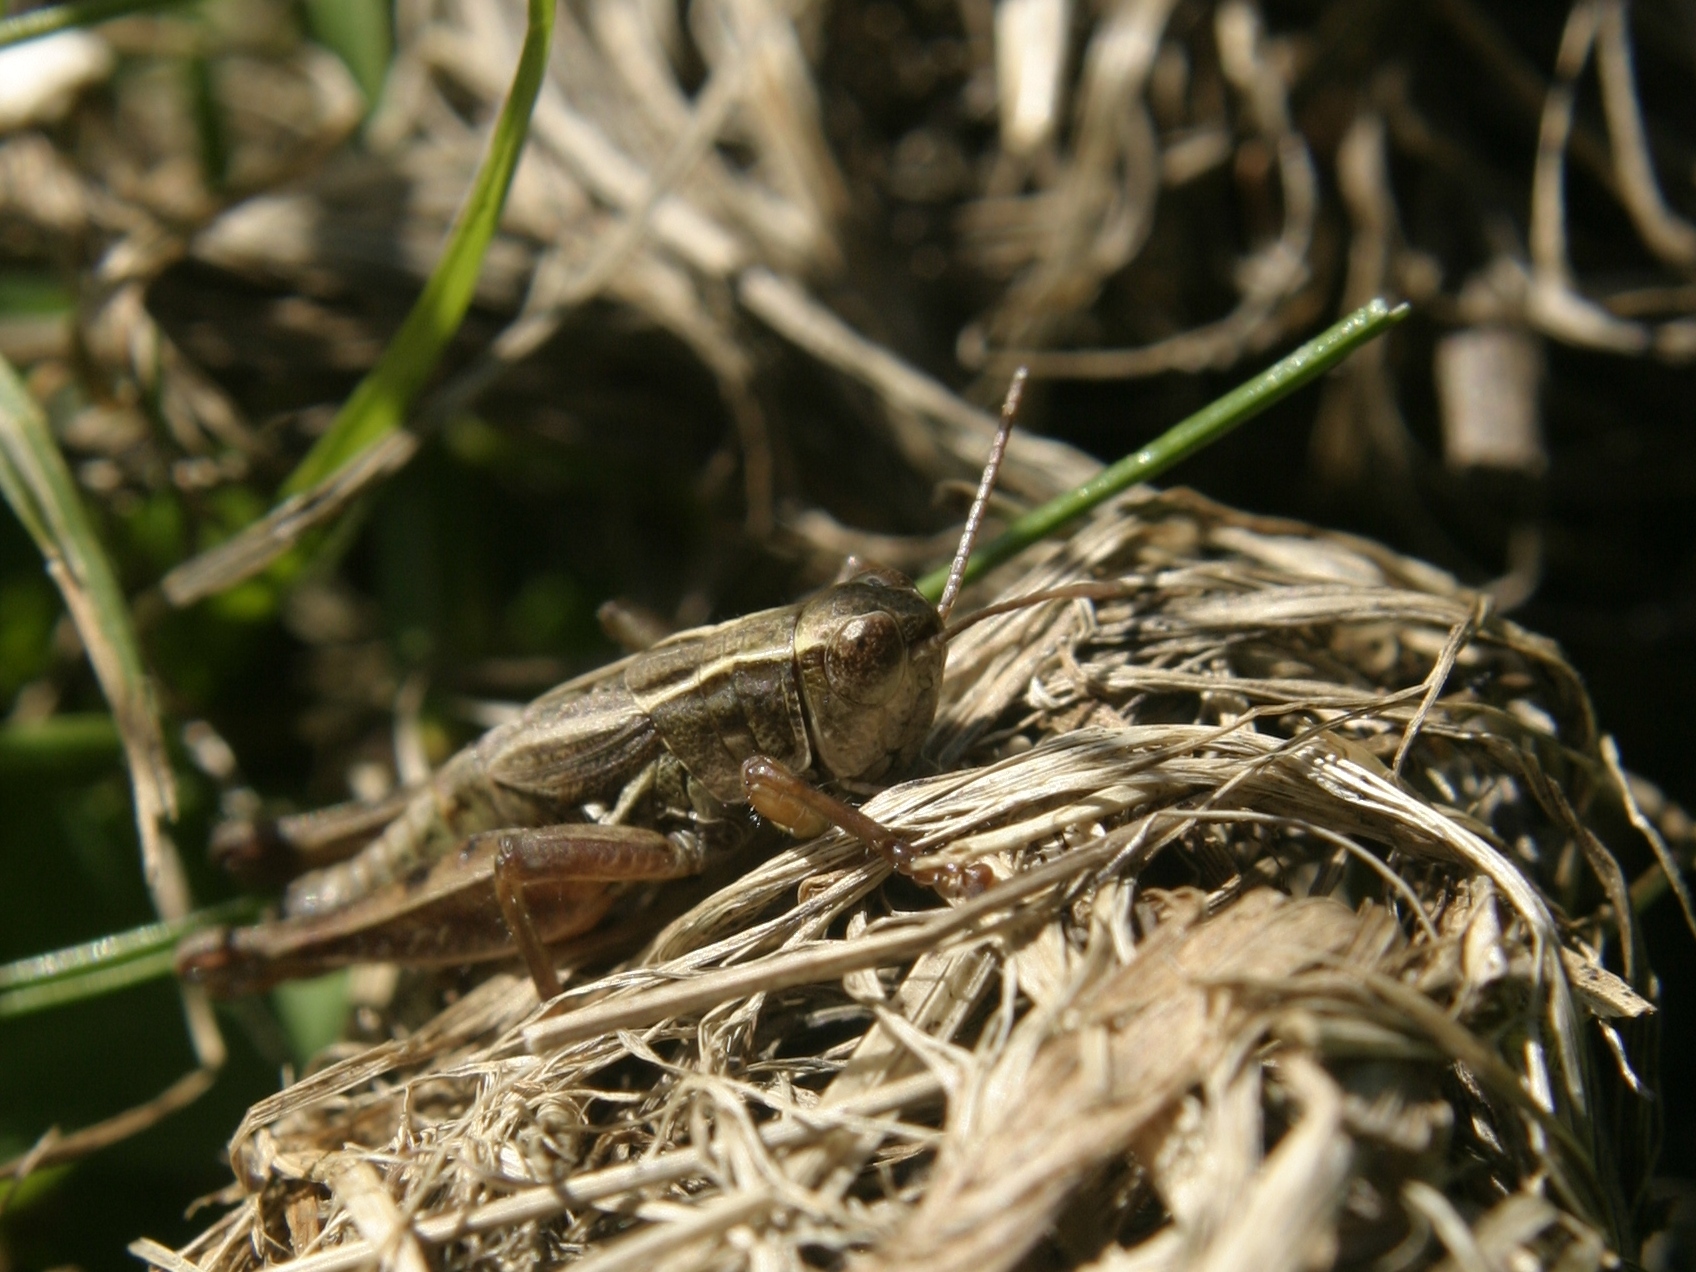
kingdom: Animalia
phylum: Arthropoda
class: Insecta
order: Orthoptera
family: Acrididae
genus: Phaulacridium
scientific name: Phaulacridium marginale
